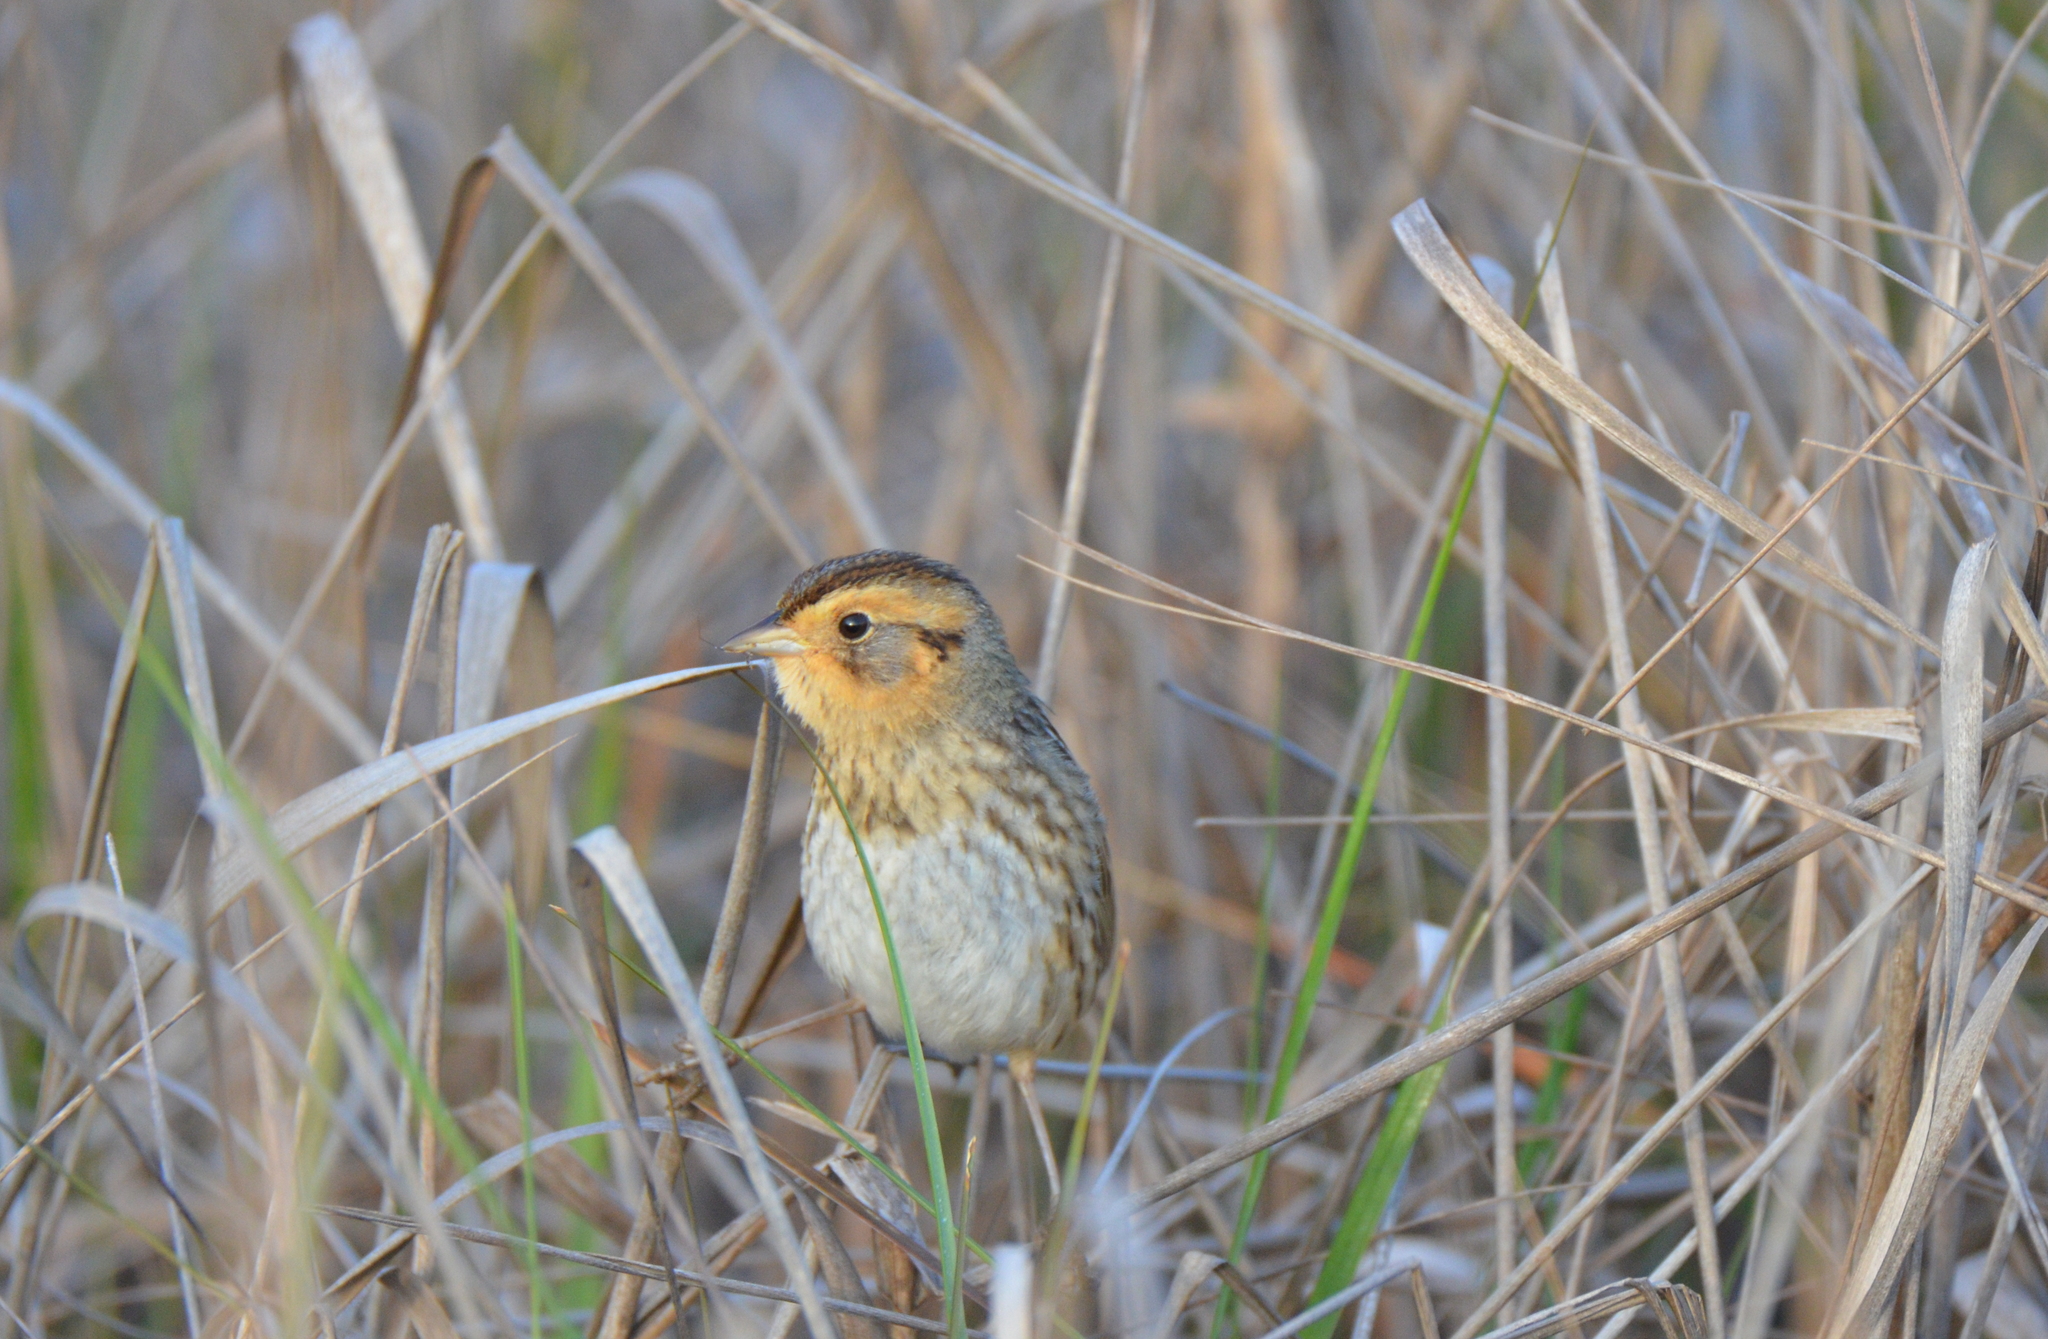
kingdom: Animalia
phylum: Chordata
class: Aves
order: Passeriformes
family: Passerellidae
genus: Ammospiza
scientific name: Ammospiza nelsoni
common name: Nelson's sparrow
